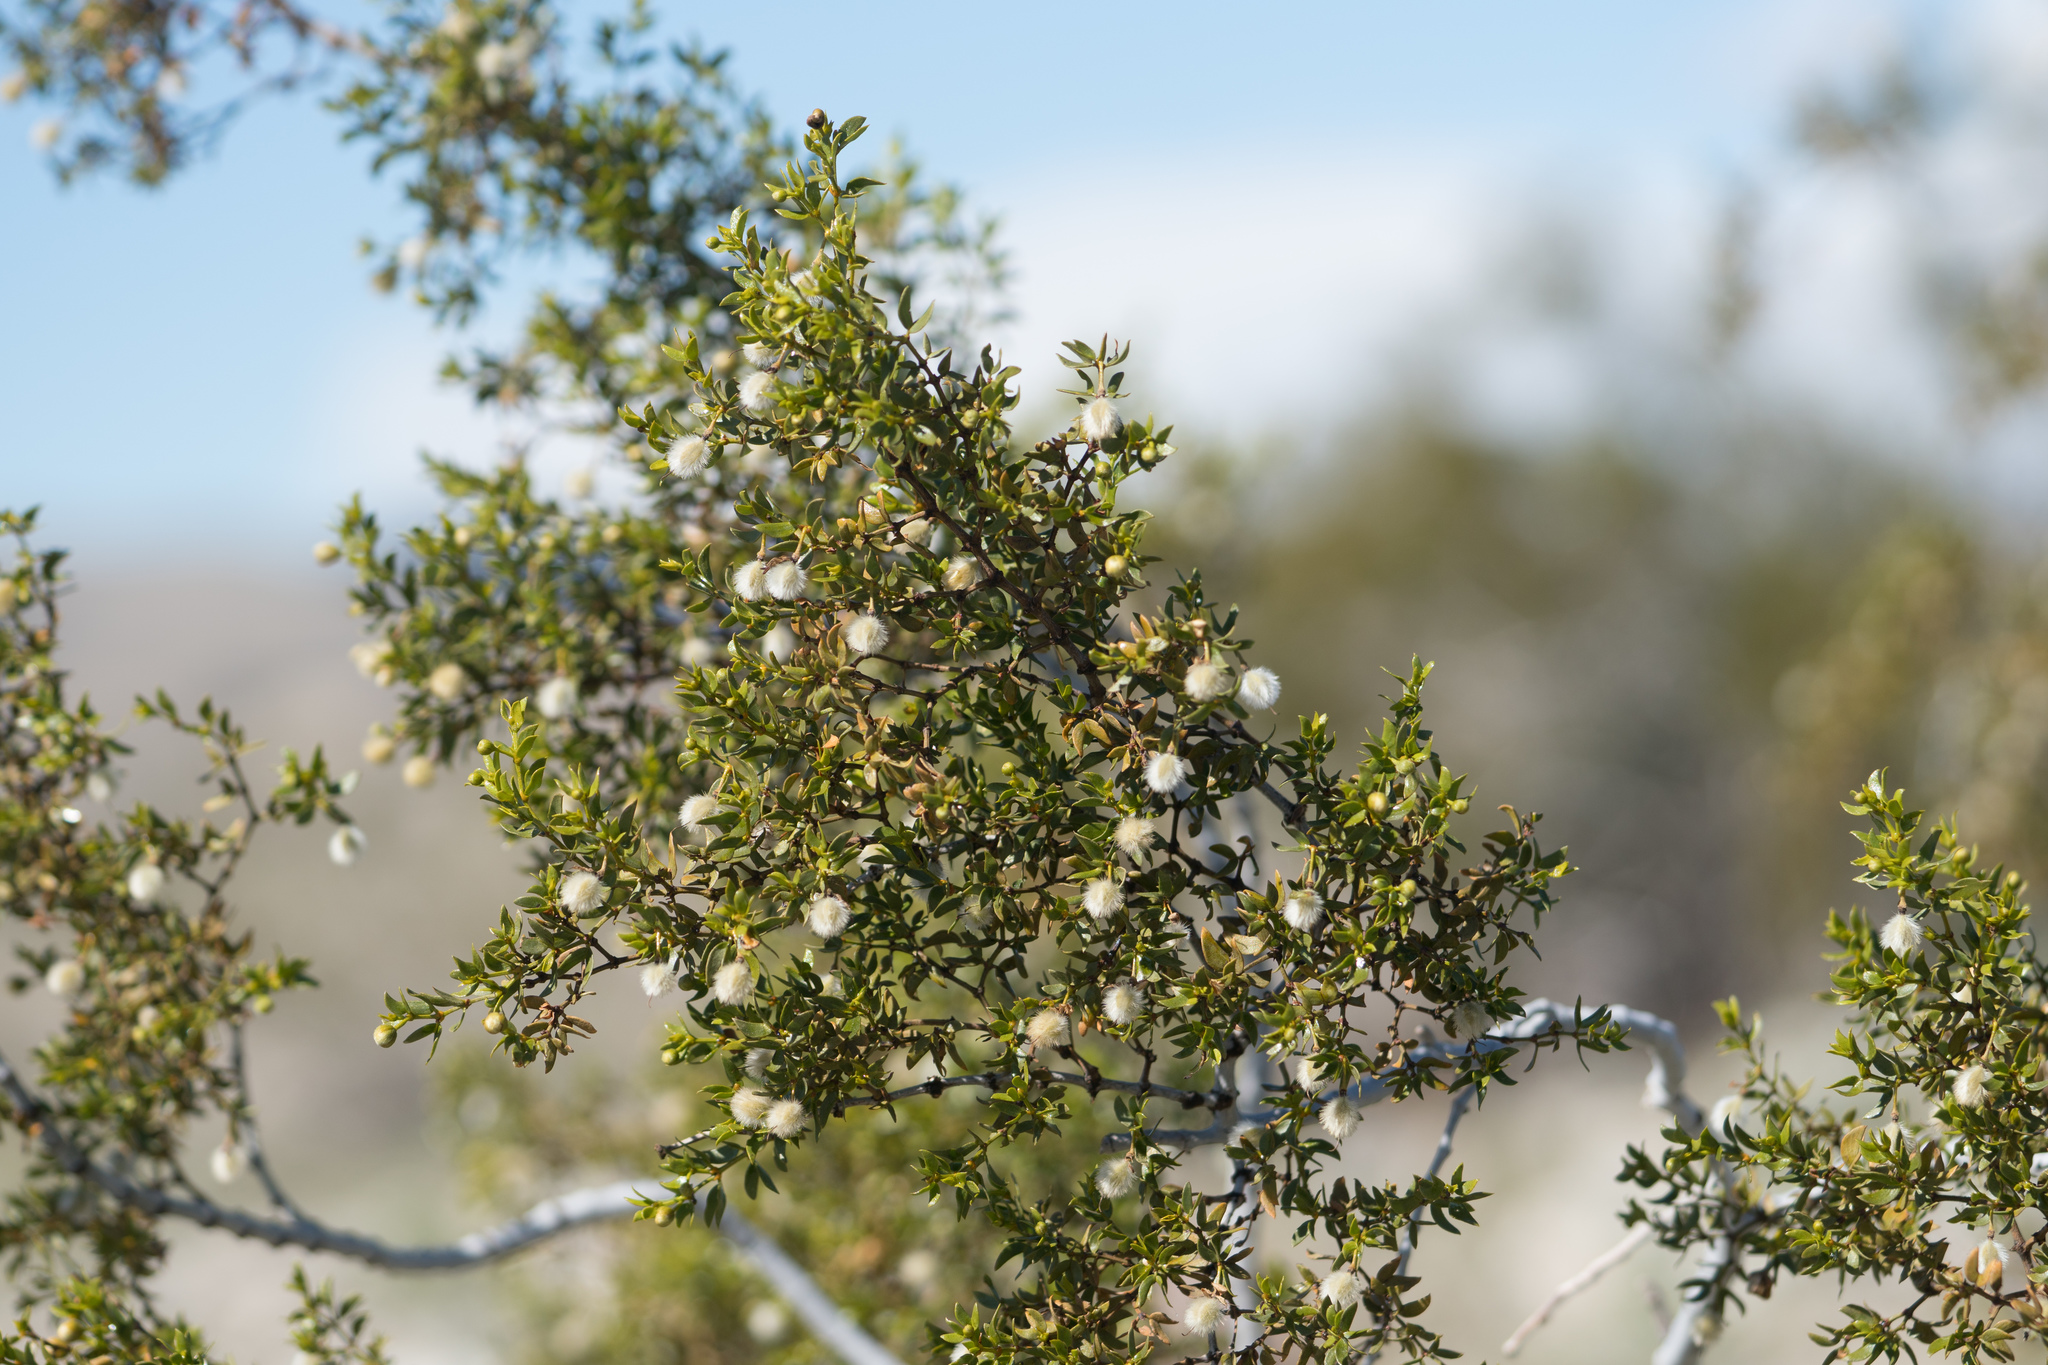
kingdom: Plantae
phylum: Tracheophyta
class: Magnoliopsida
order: Zygophyllales
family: Zygophyllaceae
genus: Larrea
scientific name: Larrea tridentata
